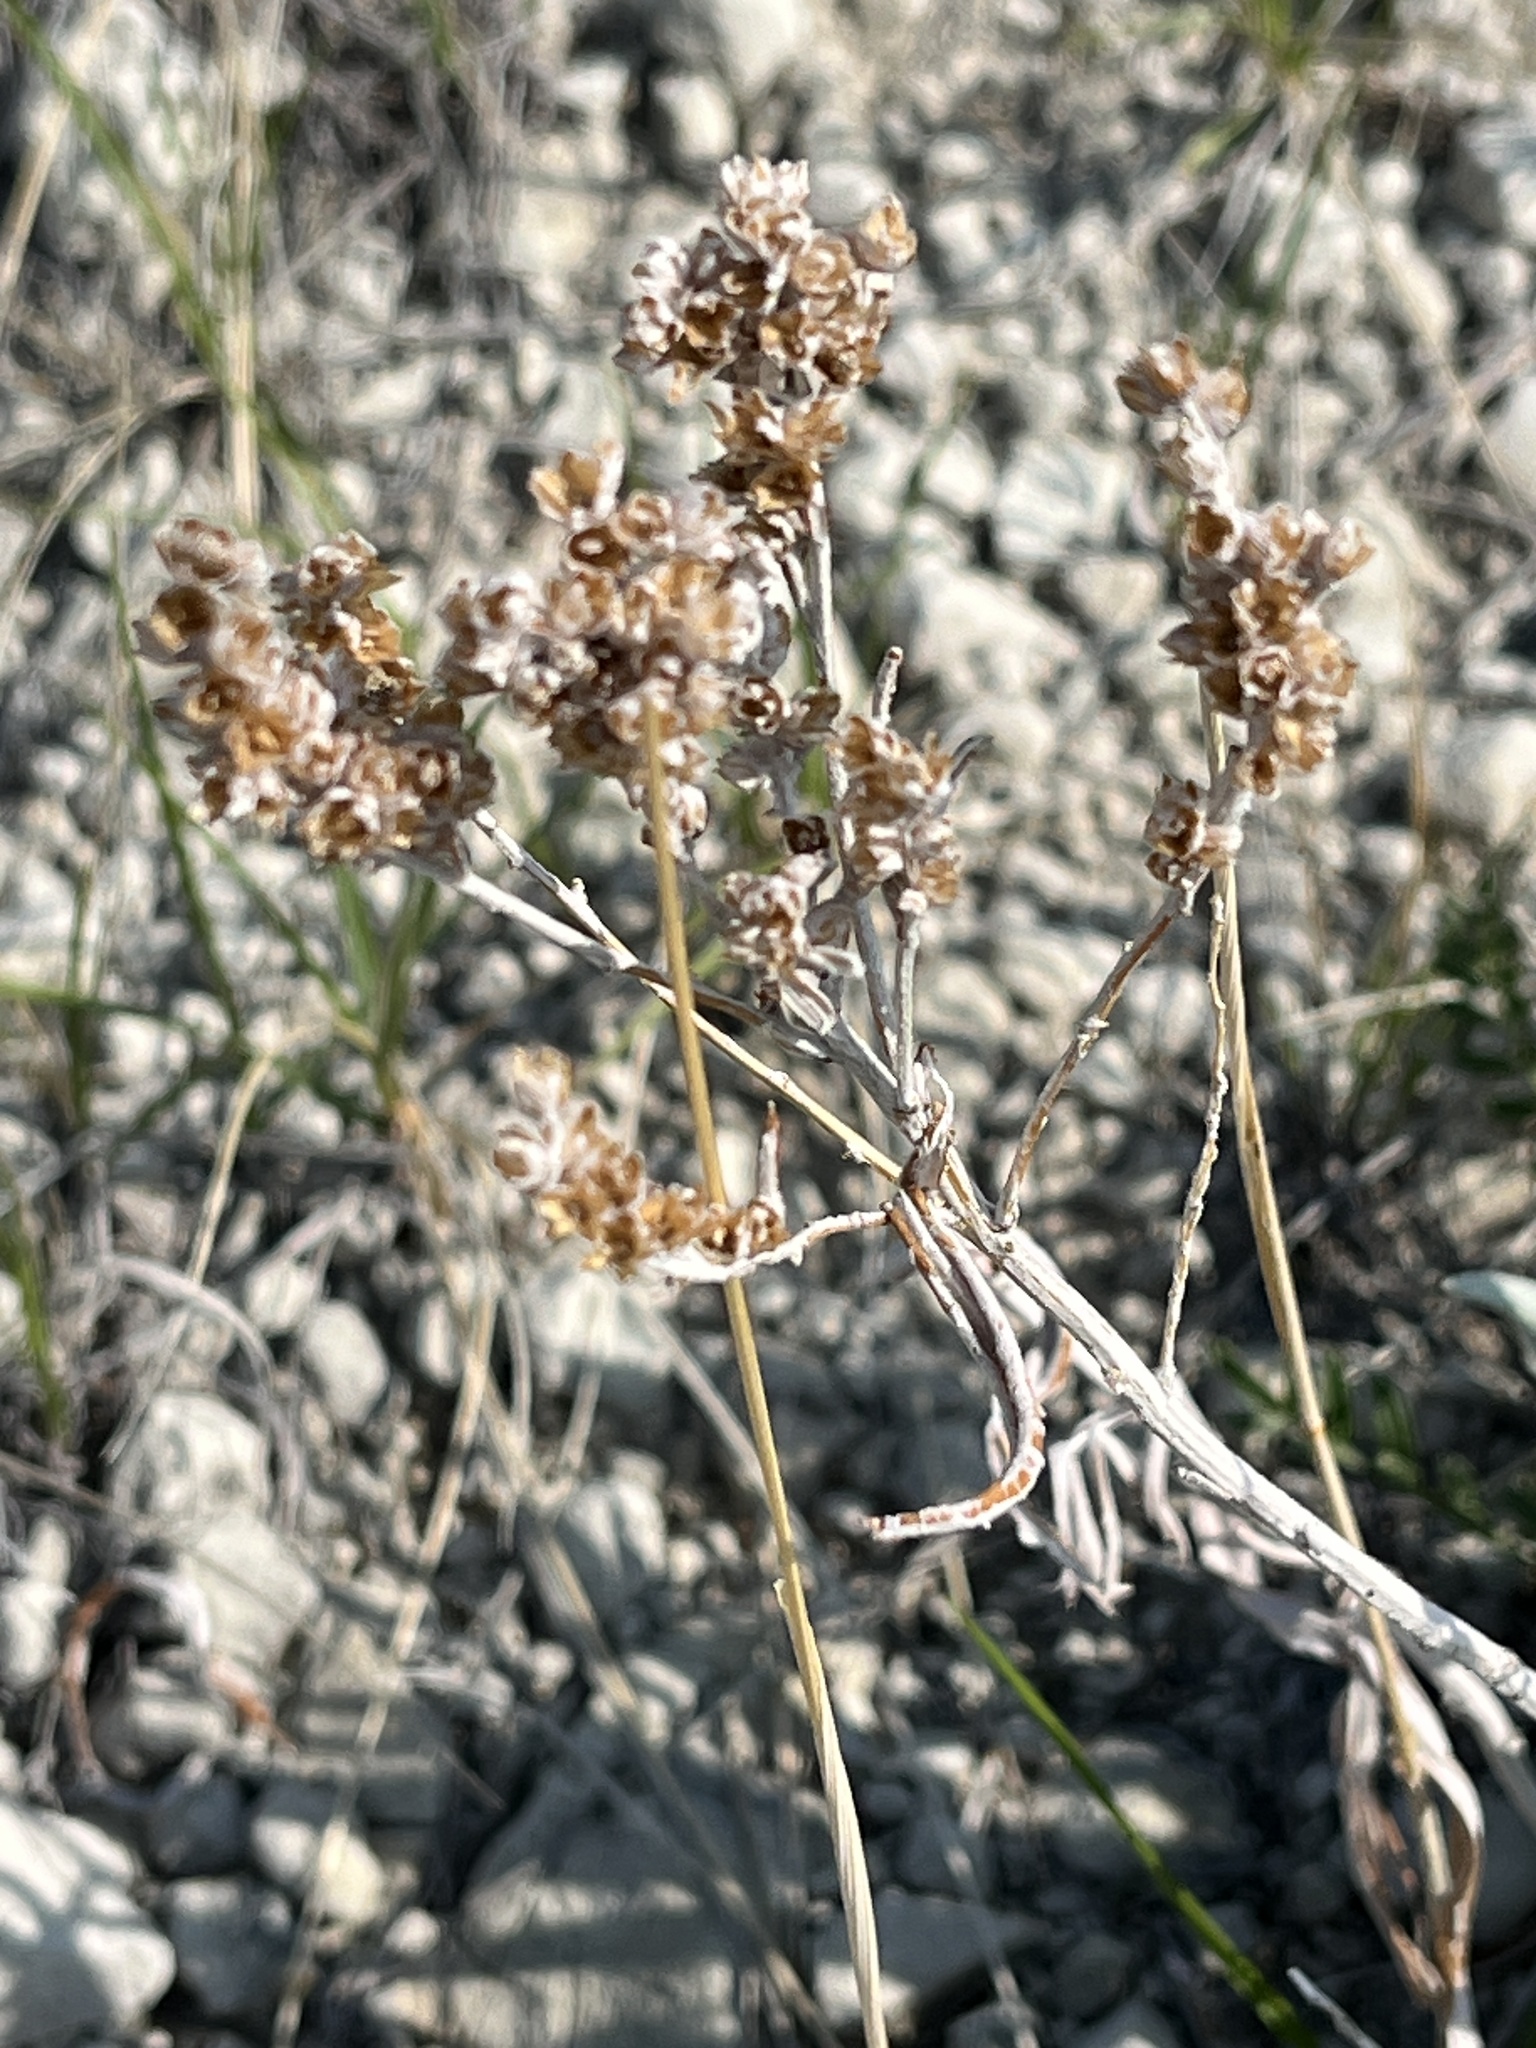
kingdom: Plantae
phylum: Tracheophyta
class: Magnoliopsida
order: Asterales
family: Asteraceae
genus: Artemisia
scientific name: Artemisia longifolia
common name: Long-leaved mugwort
